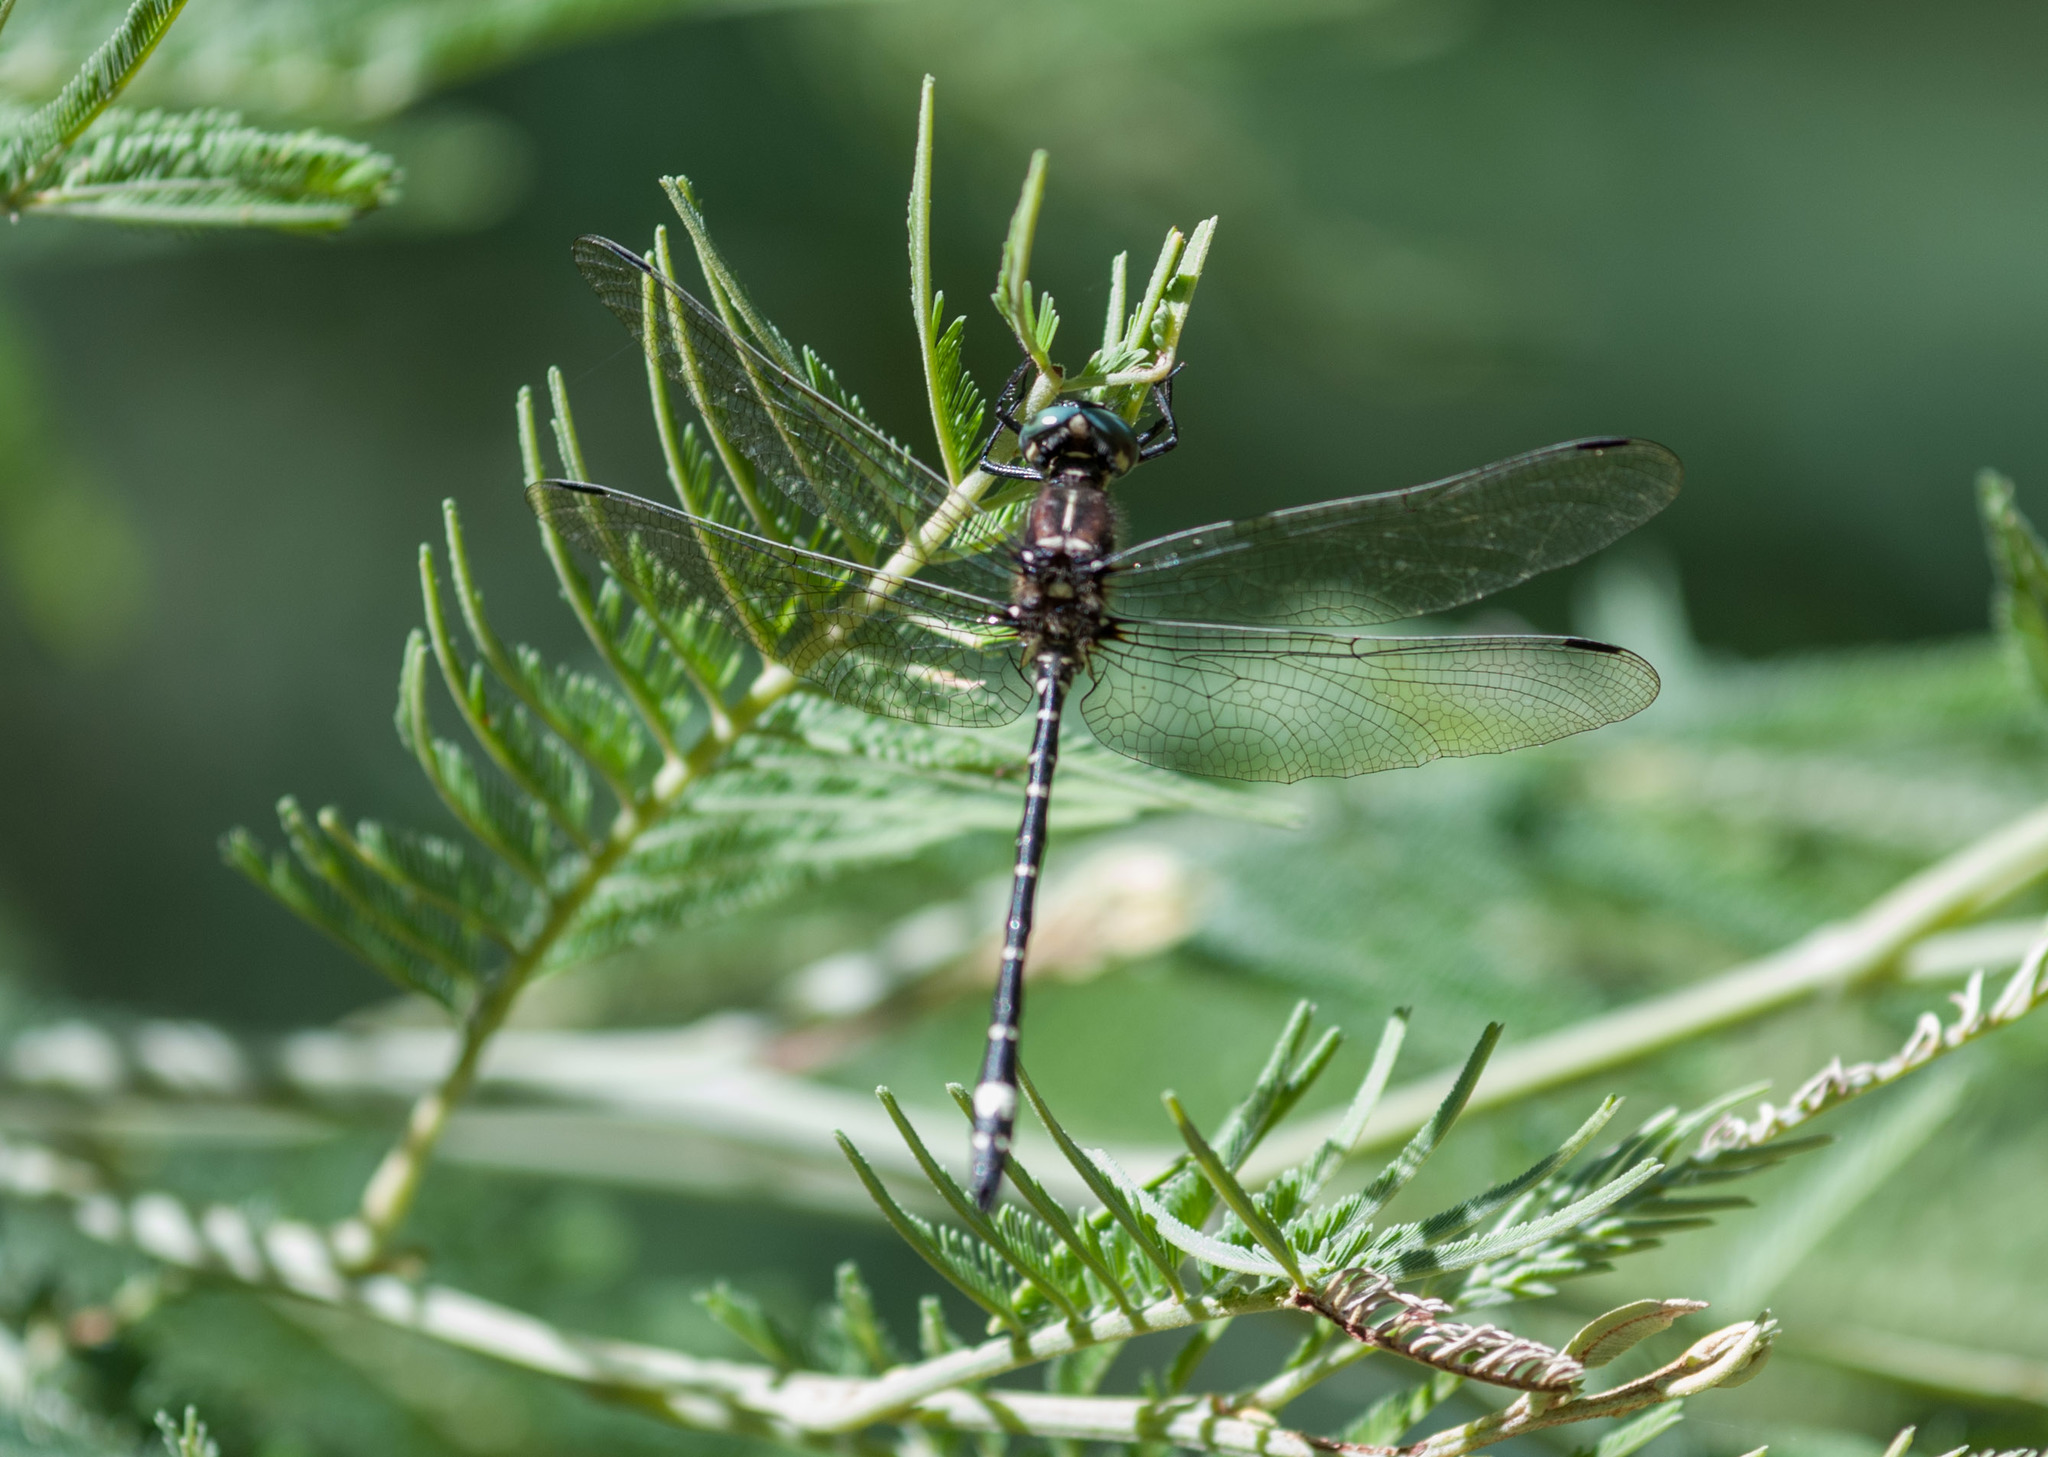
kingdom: Animalia
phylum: Arthropoda
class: Insecta
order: Odonata
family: Synthemistidae
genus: Eusynthemis
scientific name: Eusynthemis brevistyla
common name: Small tigertail
